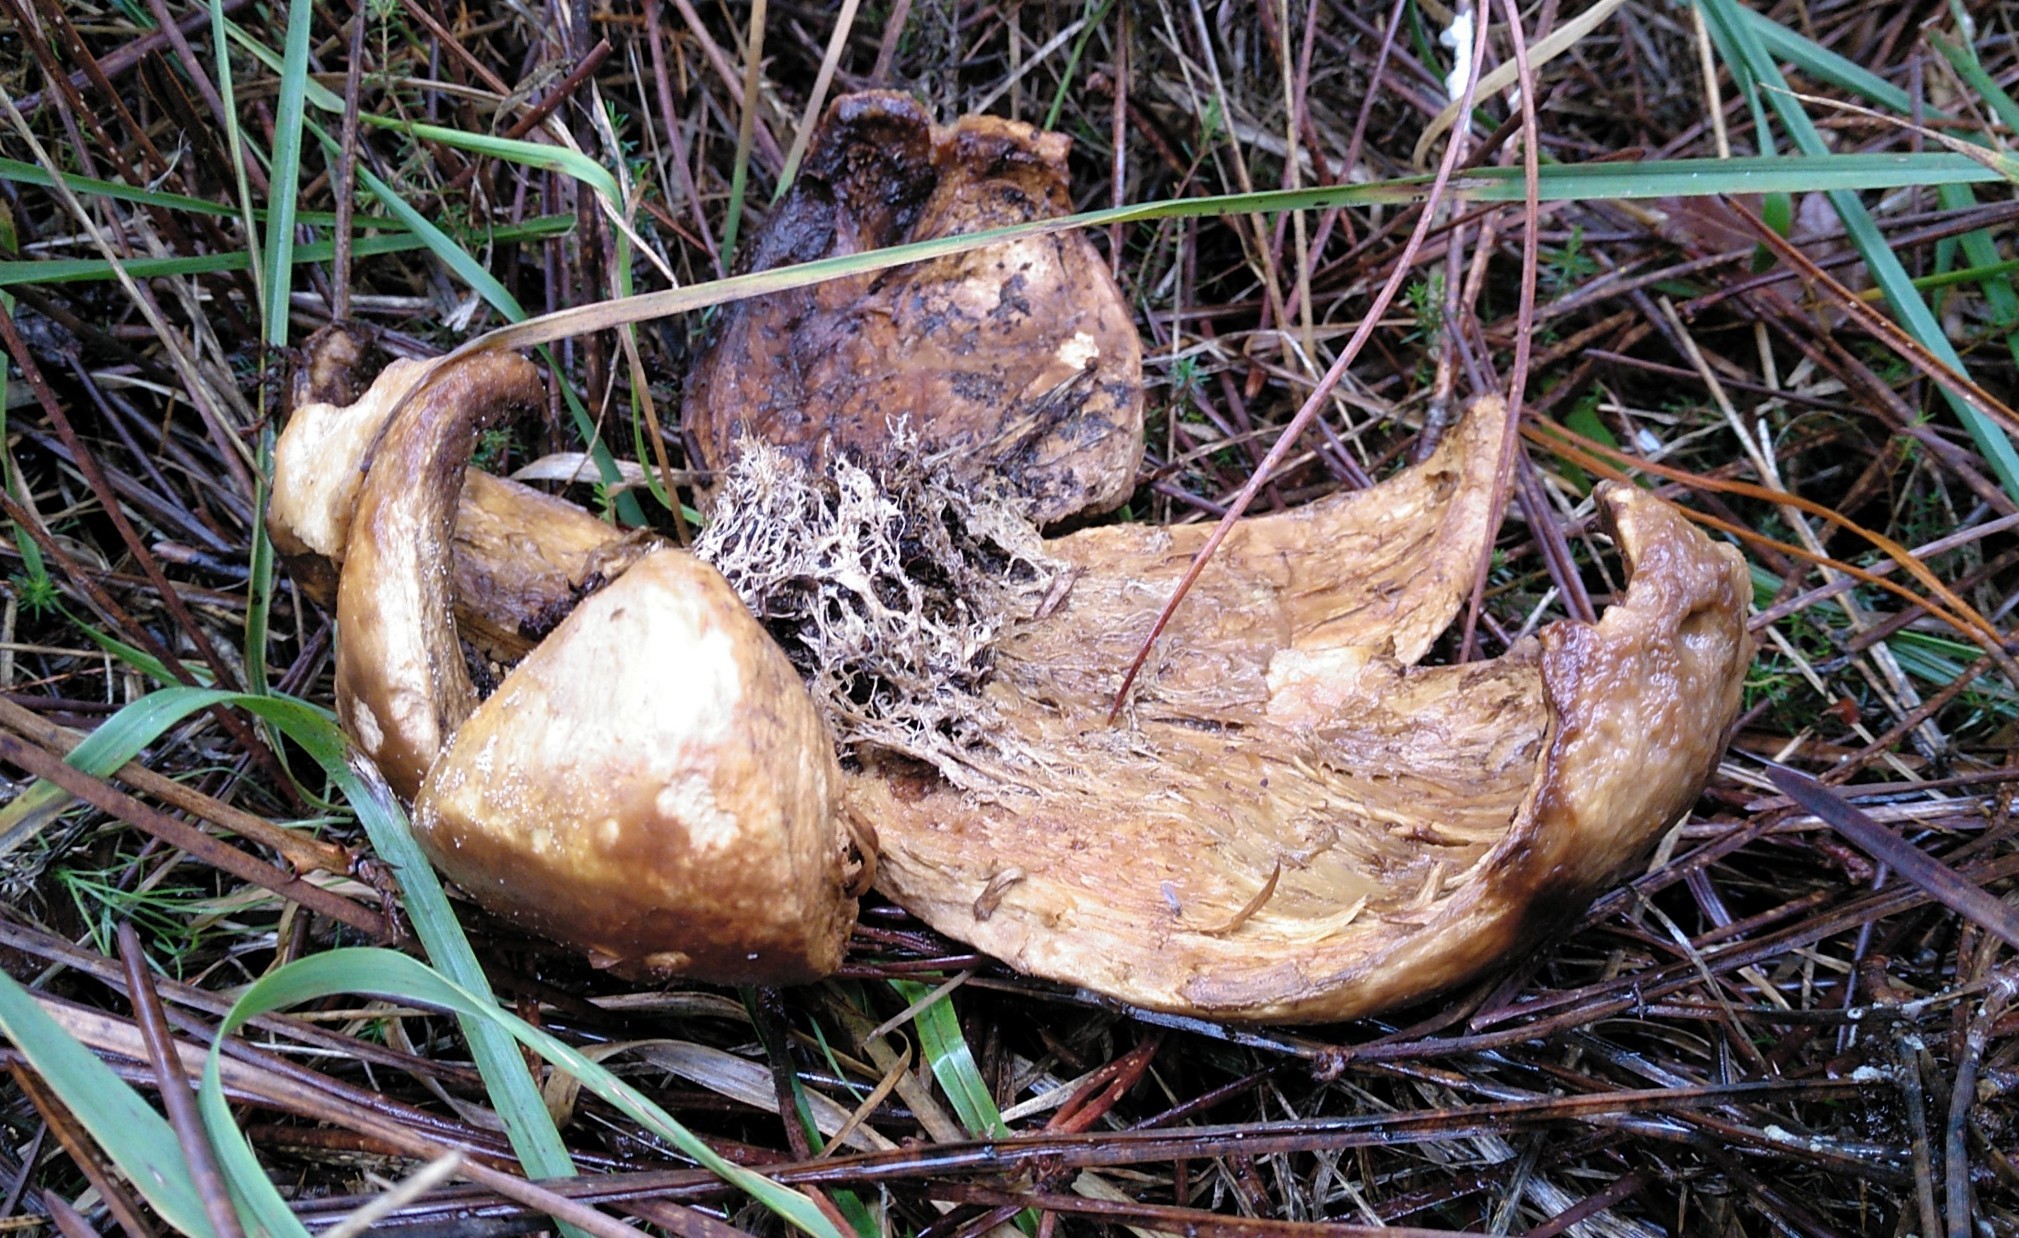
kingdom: Fungi
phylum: Basidiomycota
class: Agaricomycetes
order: Boletales
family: Sclerodermataceae
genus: Scleroderma
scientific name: Scleroderma polyrhizum
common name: Many-rooted earthball
